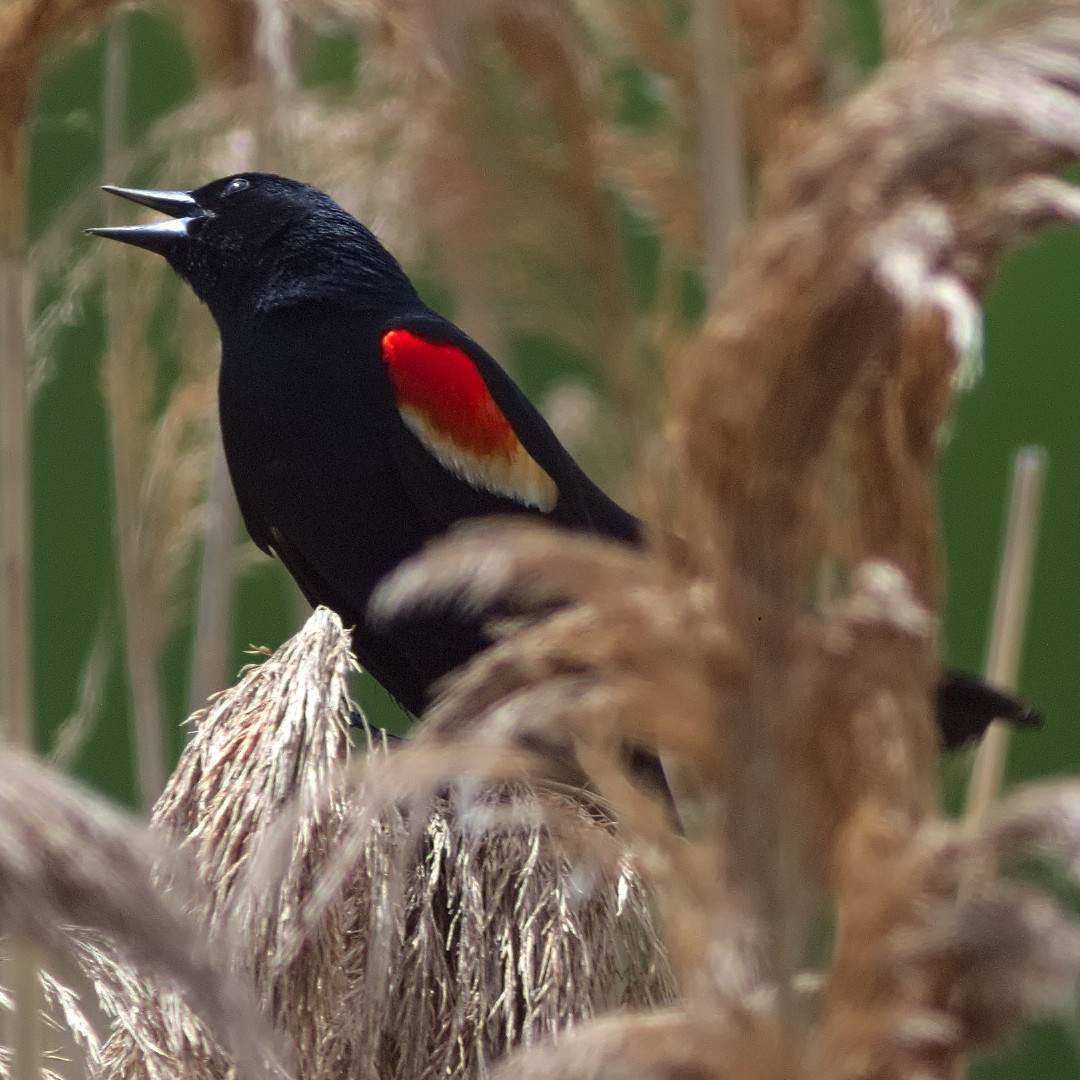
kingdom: Animalia
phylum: Chordata
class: Aves
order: Passeriformes
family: Icteridae
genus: Agelaius
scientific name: Agelaius phoeniceus
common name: Red-winged blackbird
